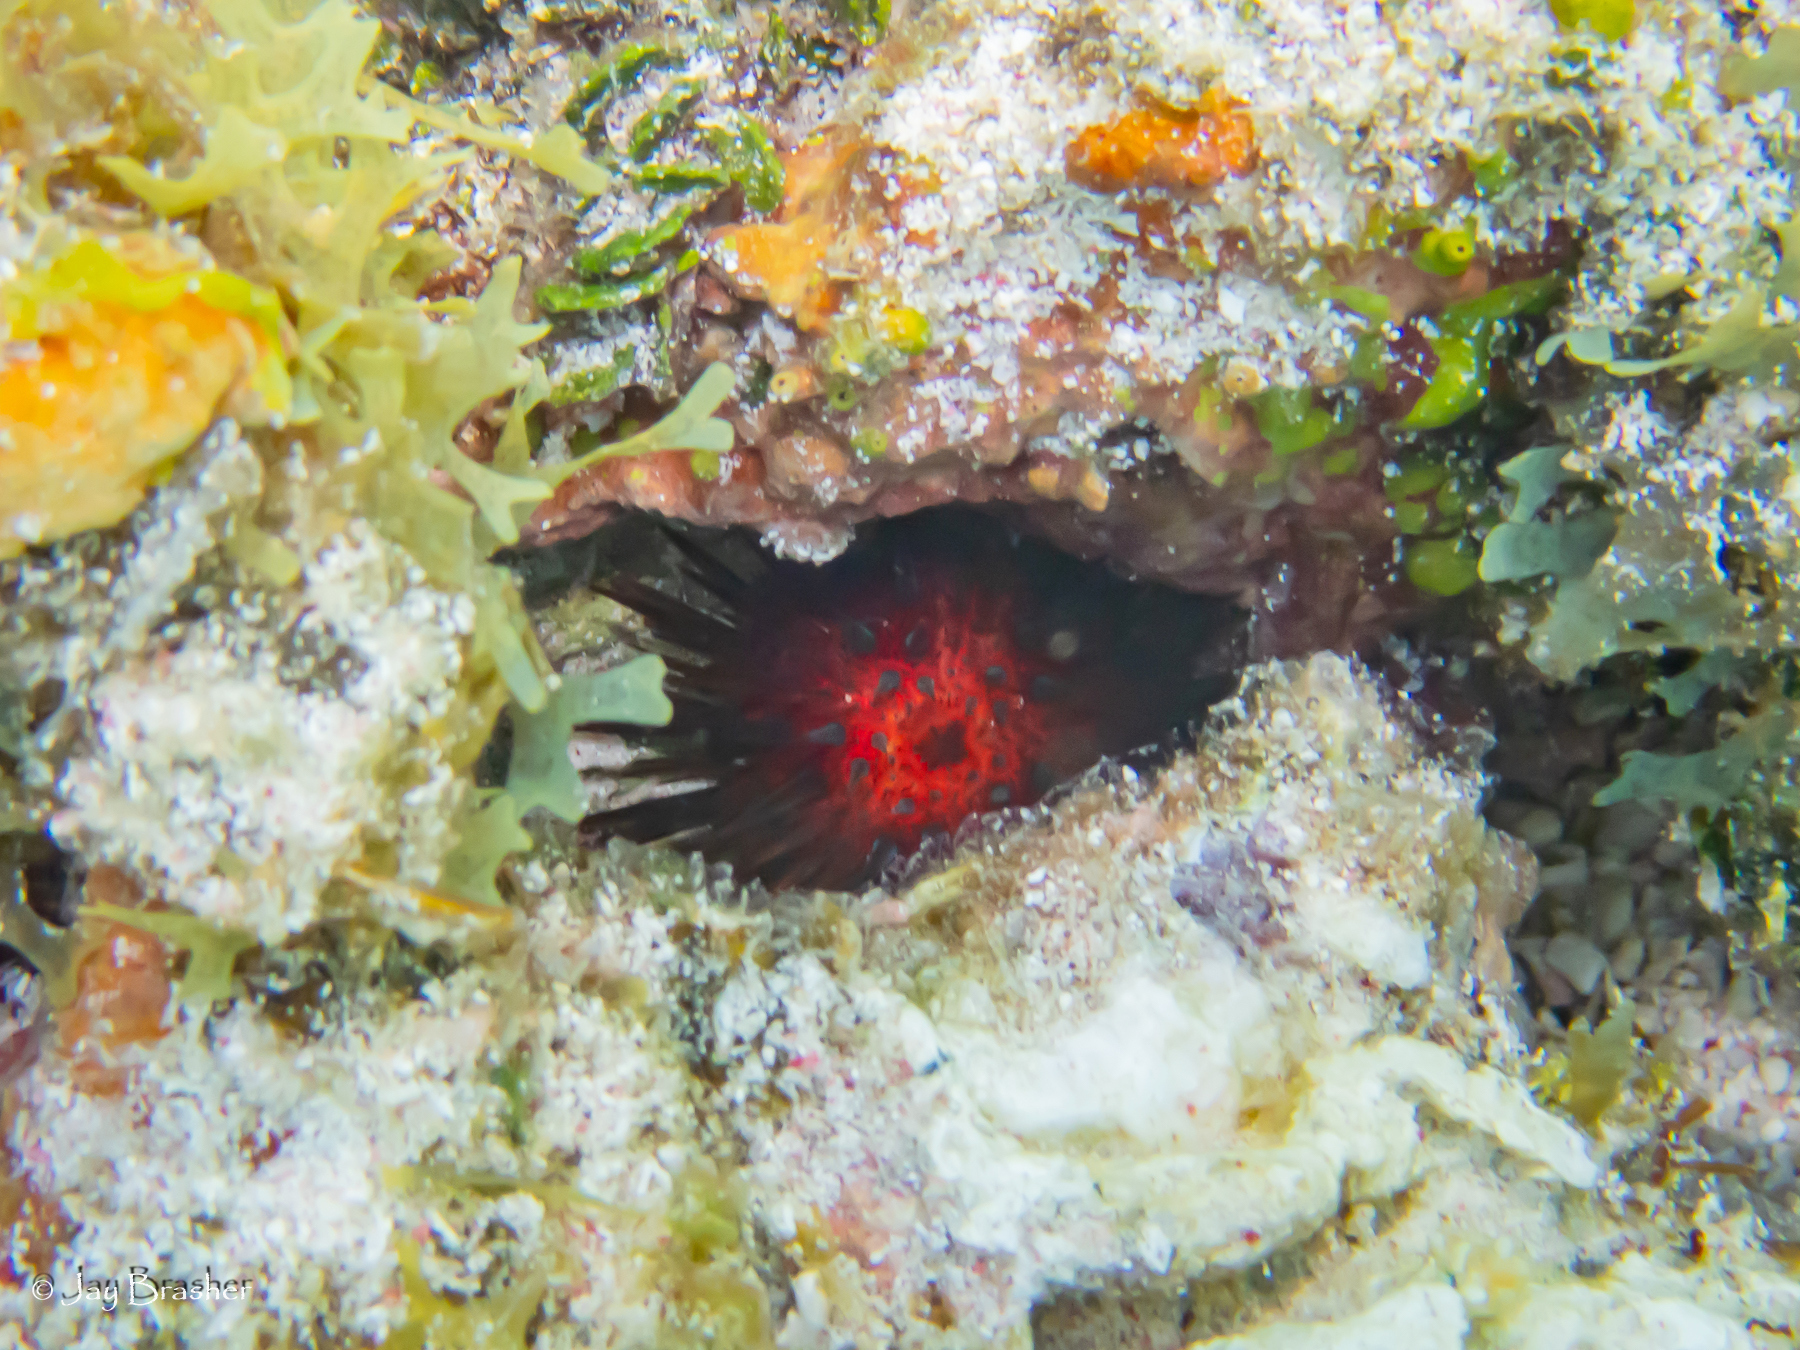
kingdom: Animalia
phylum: Echinodermata
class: Echinoidea
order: Camarodonta
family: Echinometridae
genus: Echinometra
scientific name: Echinometra lucunter
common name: Rock urchin
